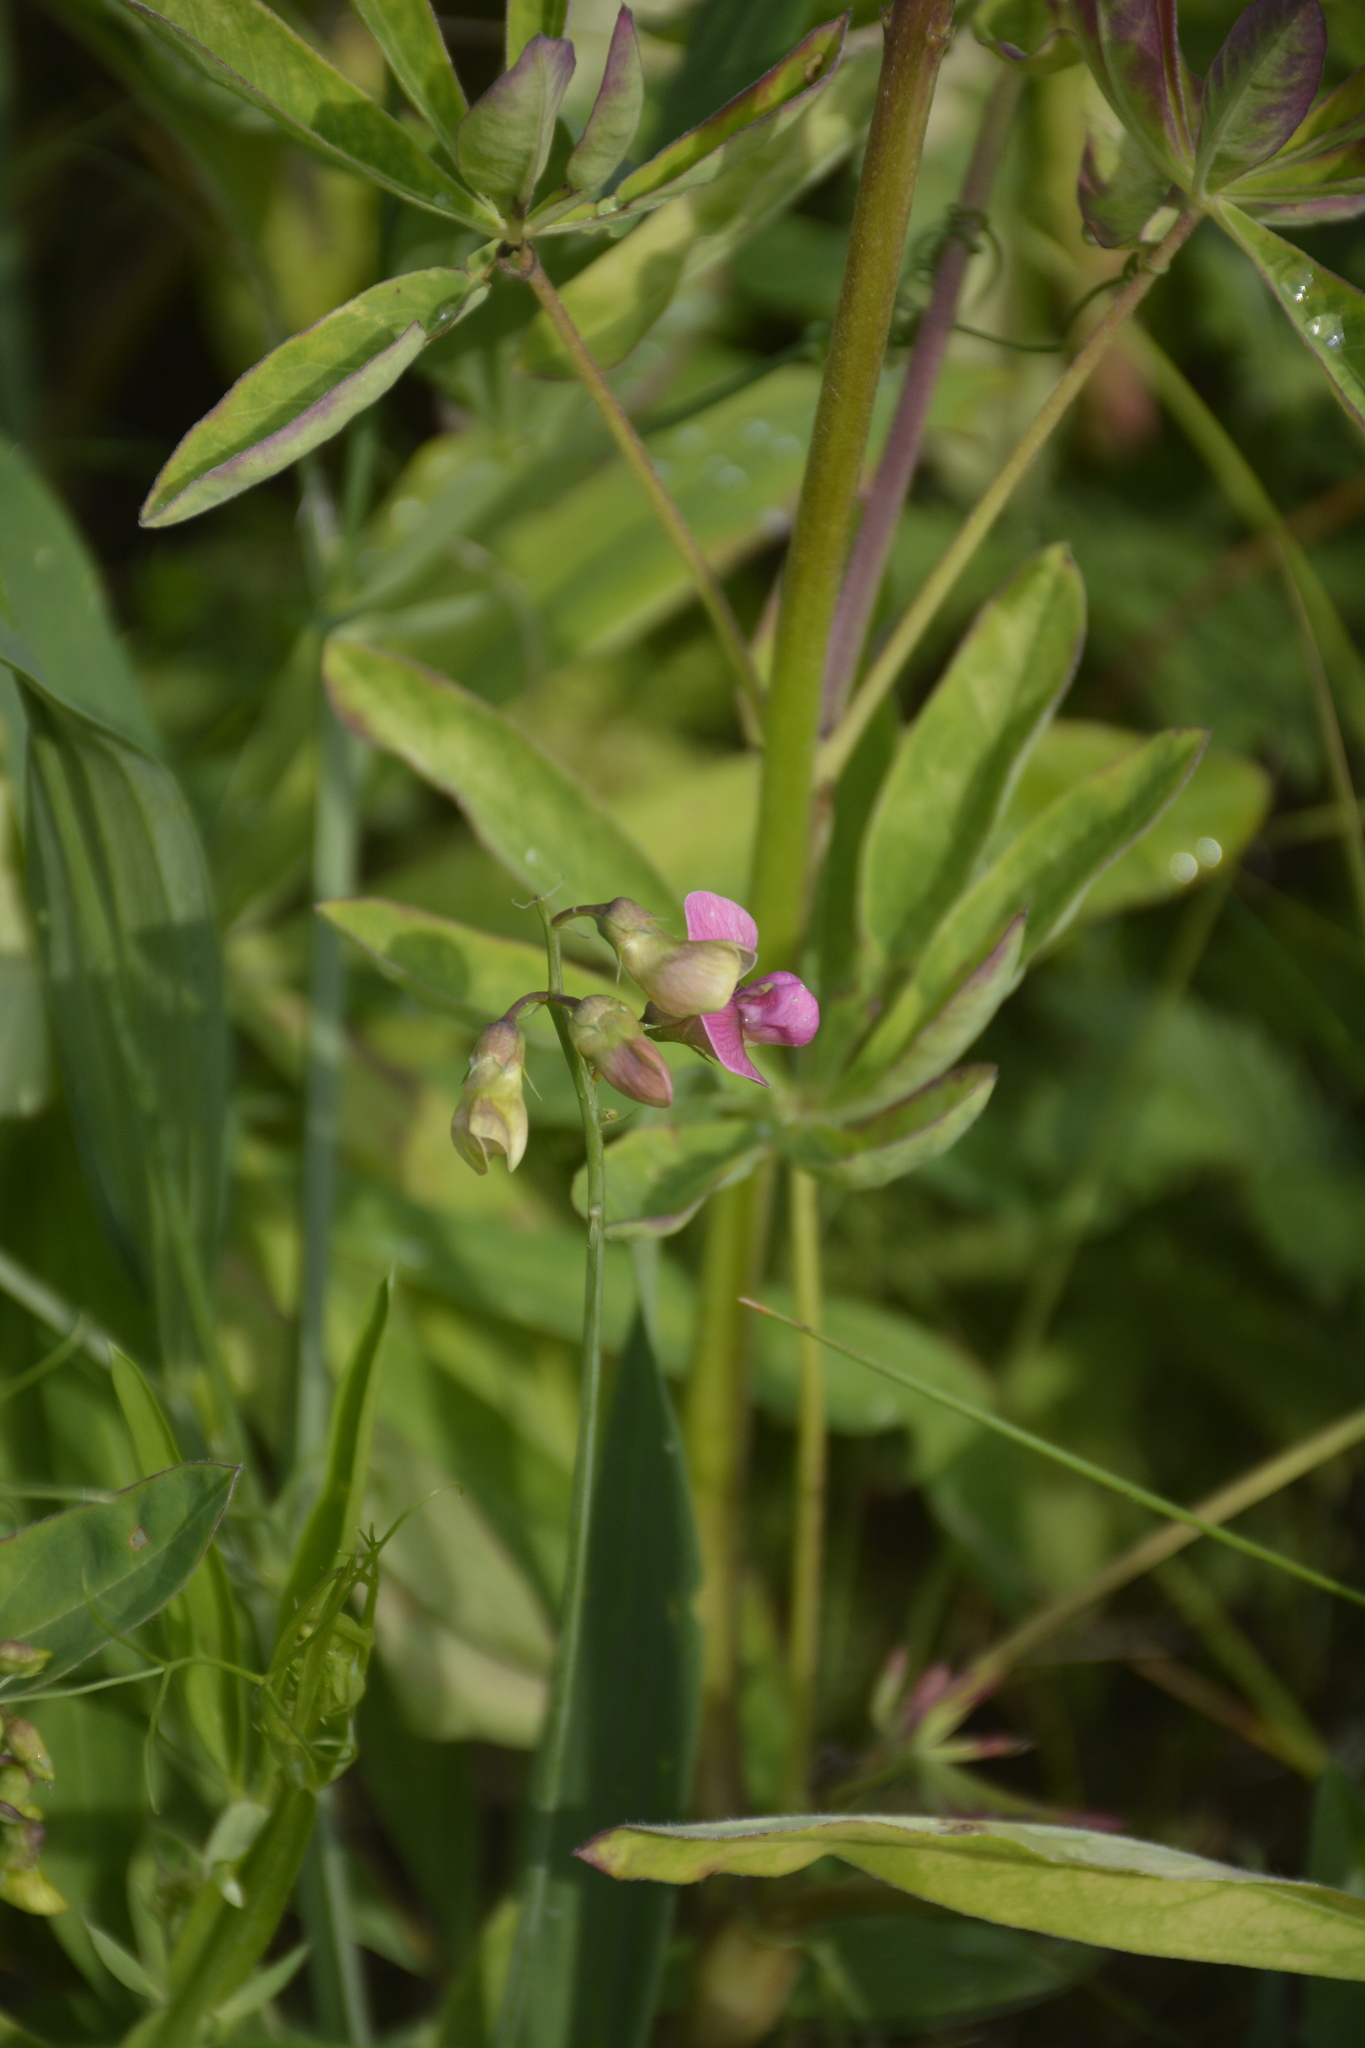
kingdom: Plantae
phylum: Tracheophyta
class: Magnoliopsida
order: Fabales
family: Fabaceae
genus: Lathyrus
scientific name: Lathyrus sylvestris
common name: Flat pea
